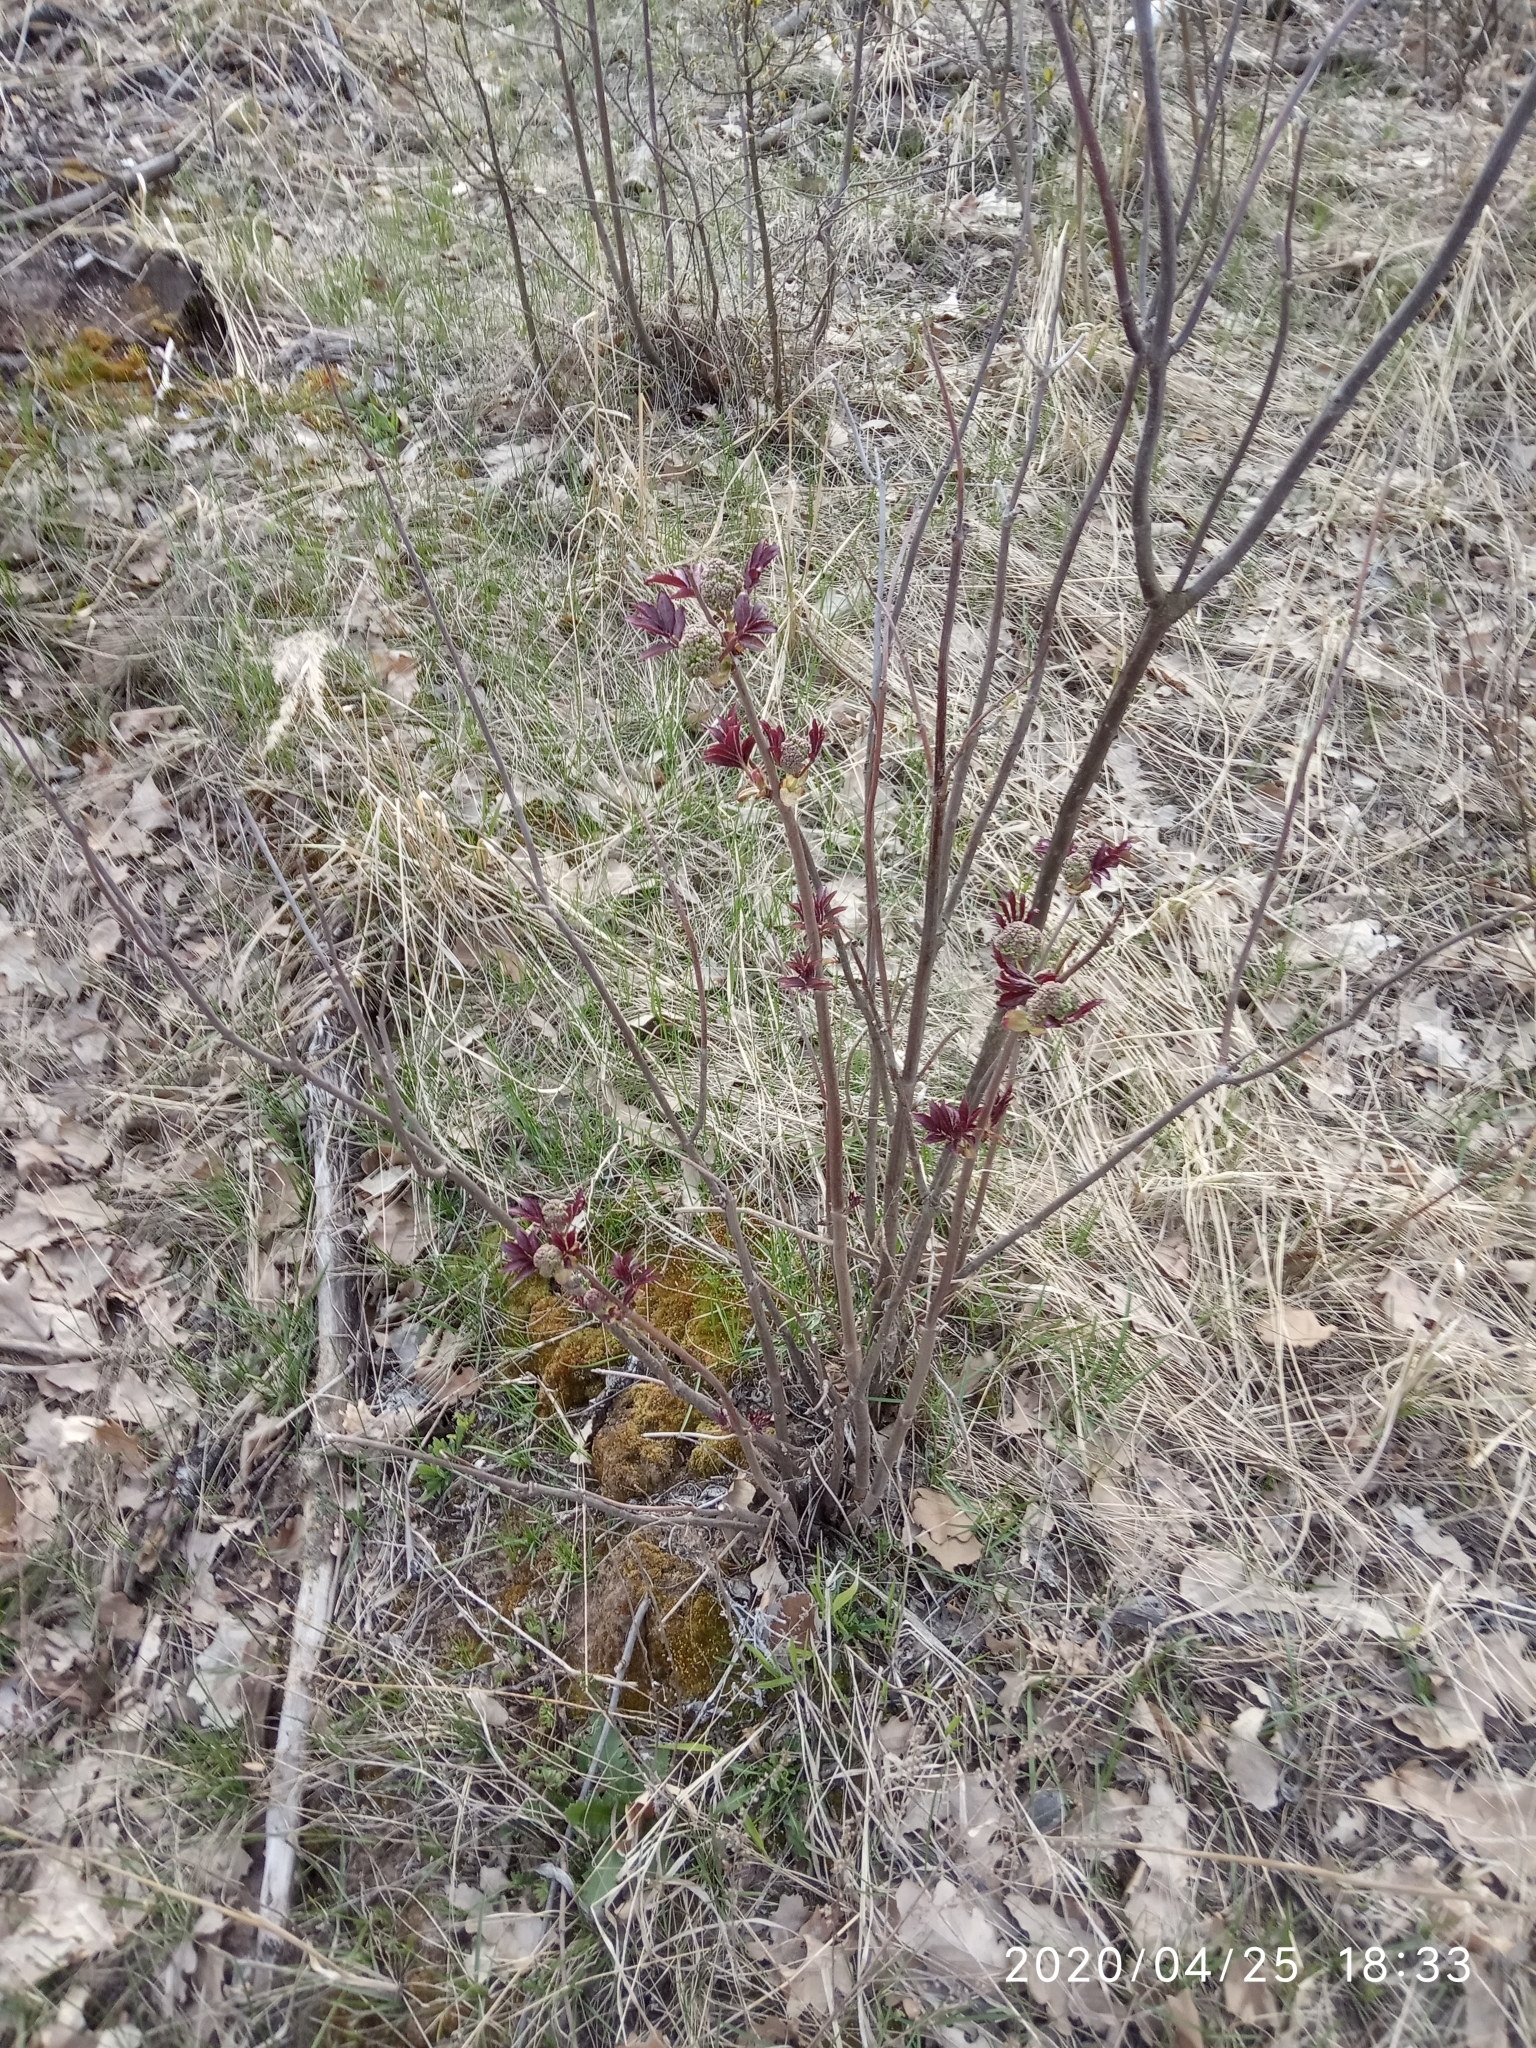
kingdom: Plantae
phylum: Tracheophyta
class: Magnoliopsida
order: Dipsacales
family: Viburnaceae
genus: Sambucus
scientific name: Sambucus racemosa
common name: Red-berried elder
